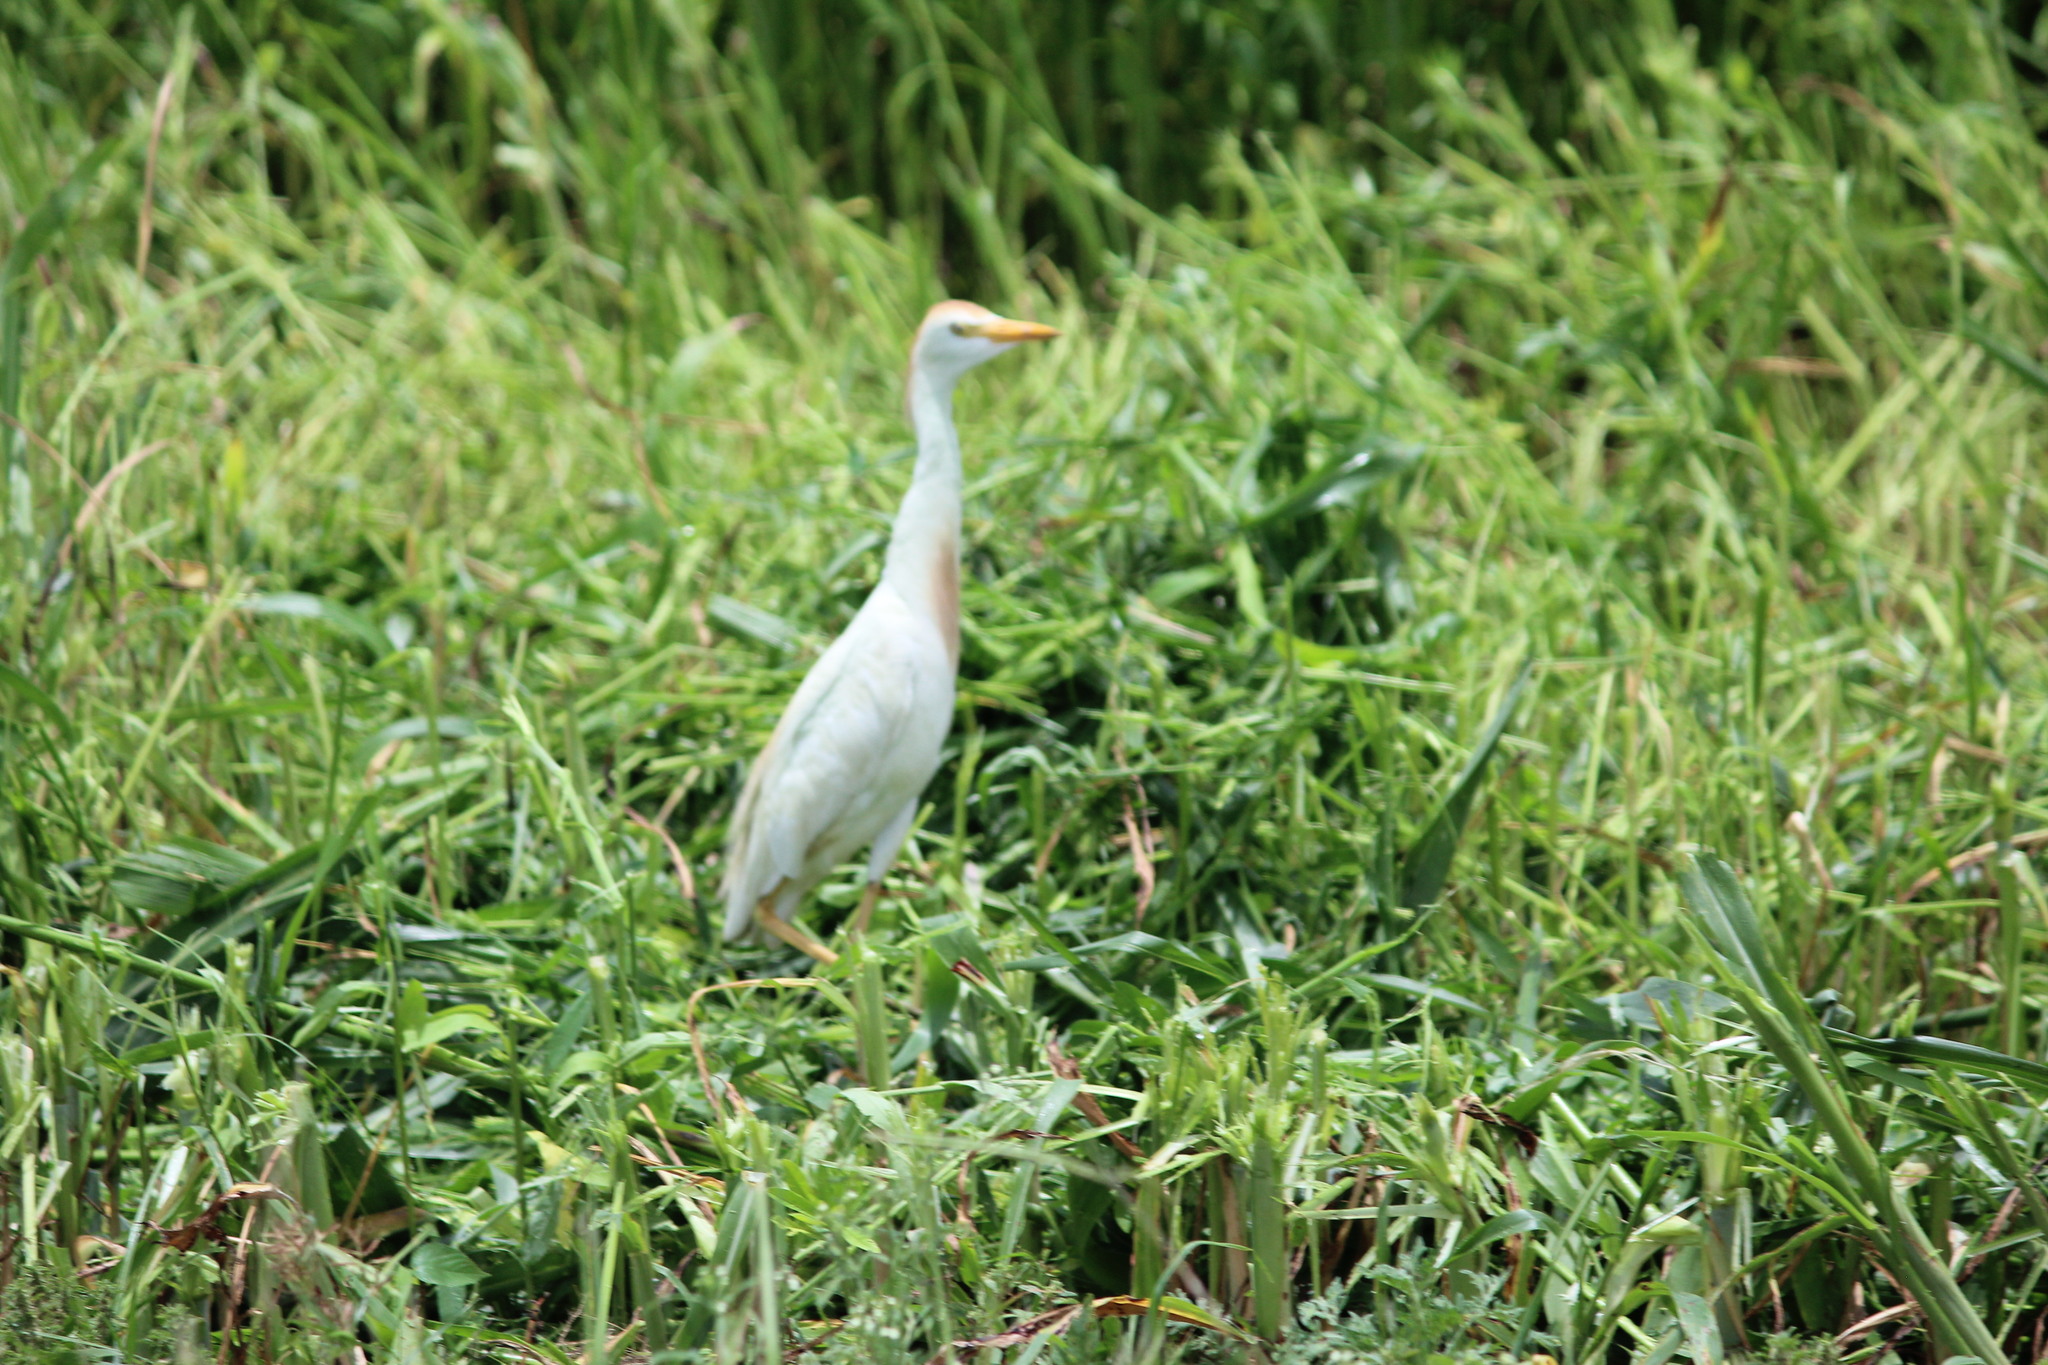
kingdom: Animalia
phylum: Chordata
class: Aves
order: Pelecaniformes
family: Ardeidae
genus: Bubulcus
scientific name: Bubulcus ibis
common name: Cattle egret
